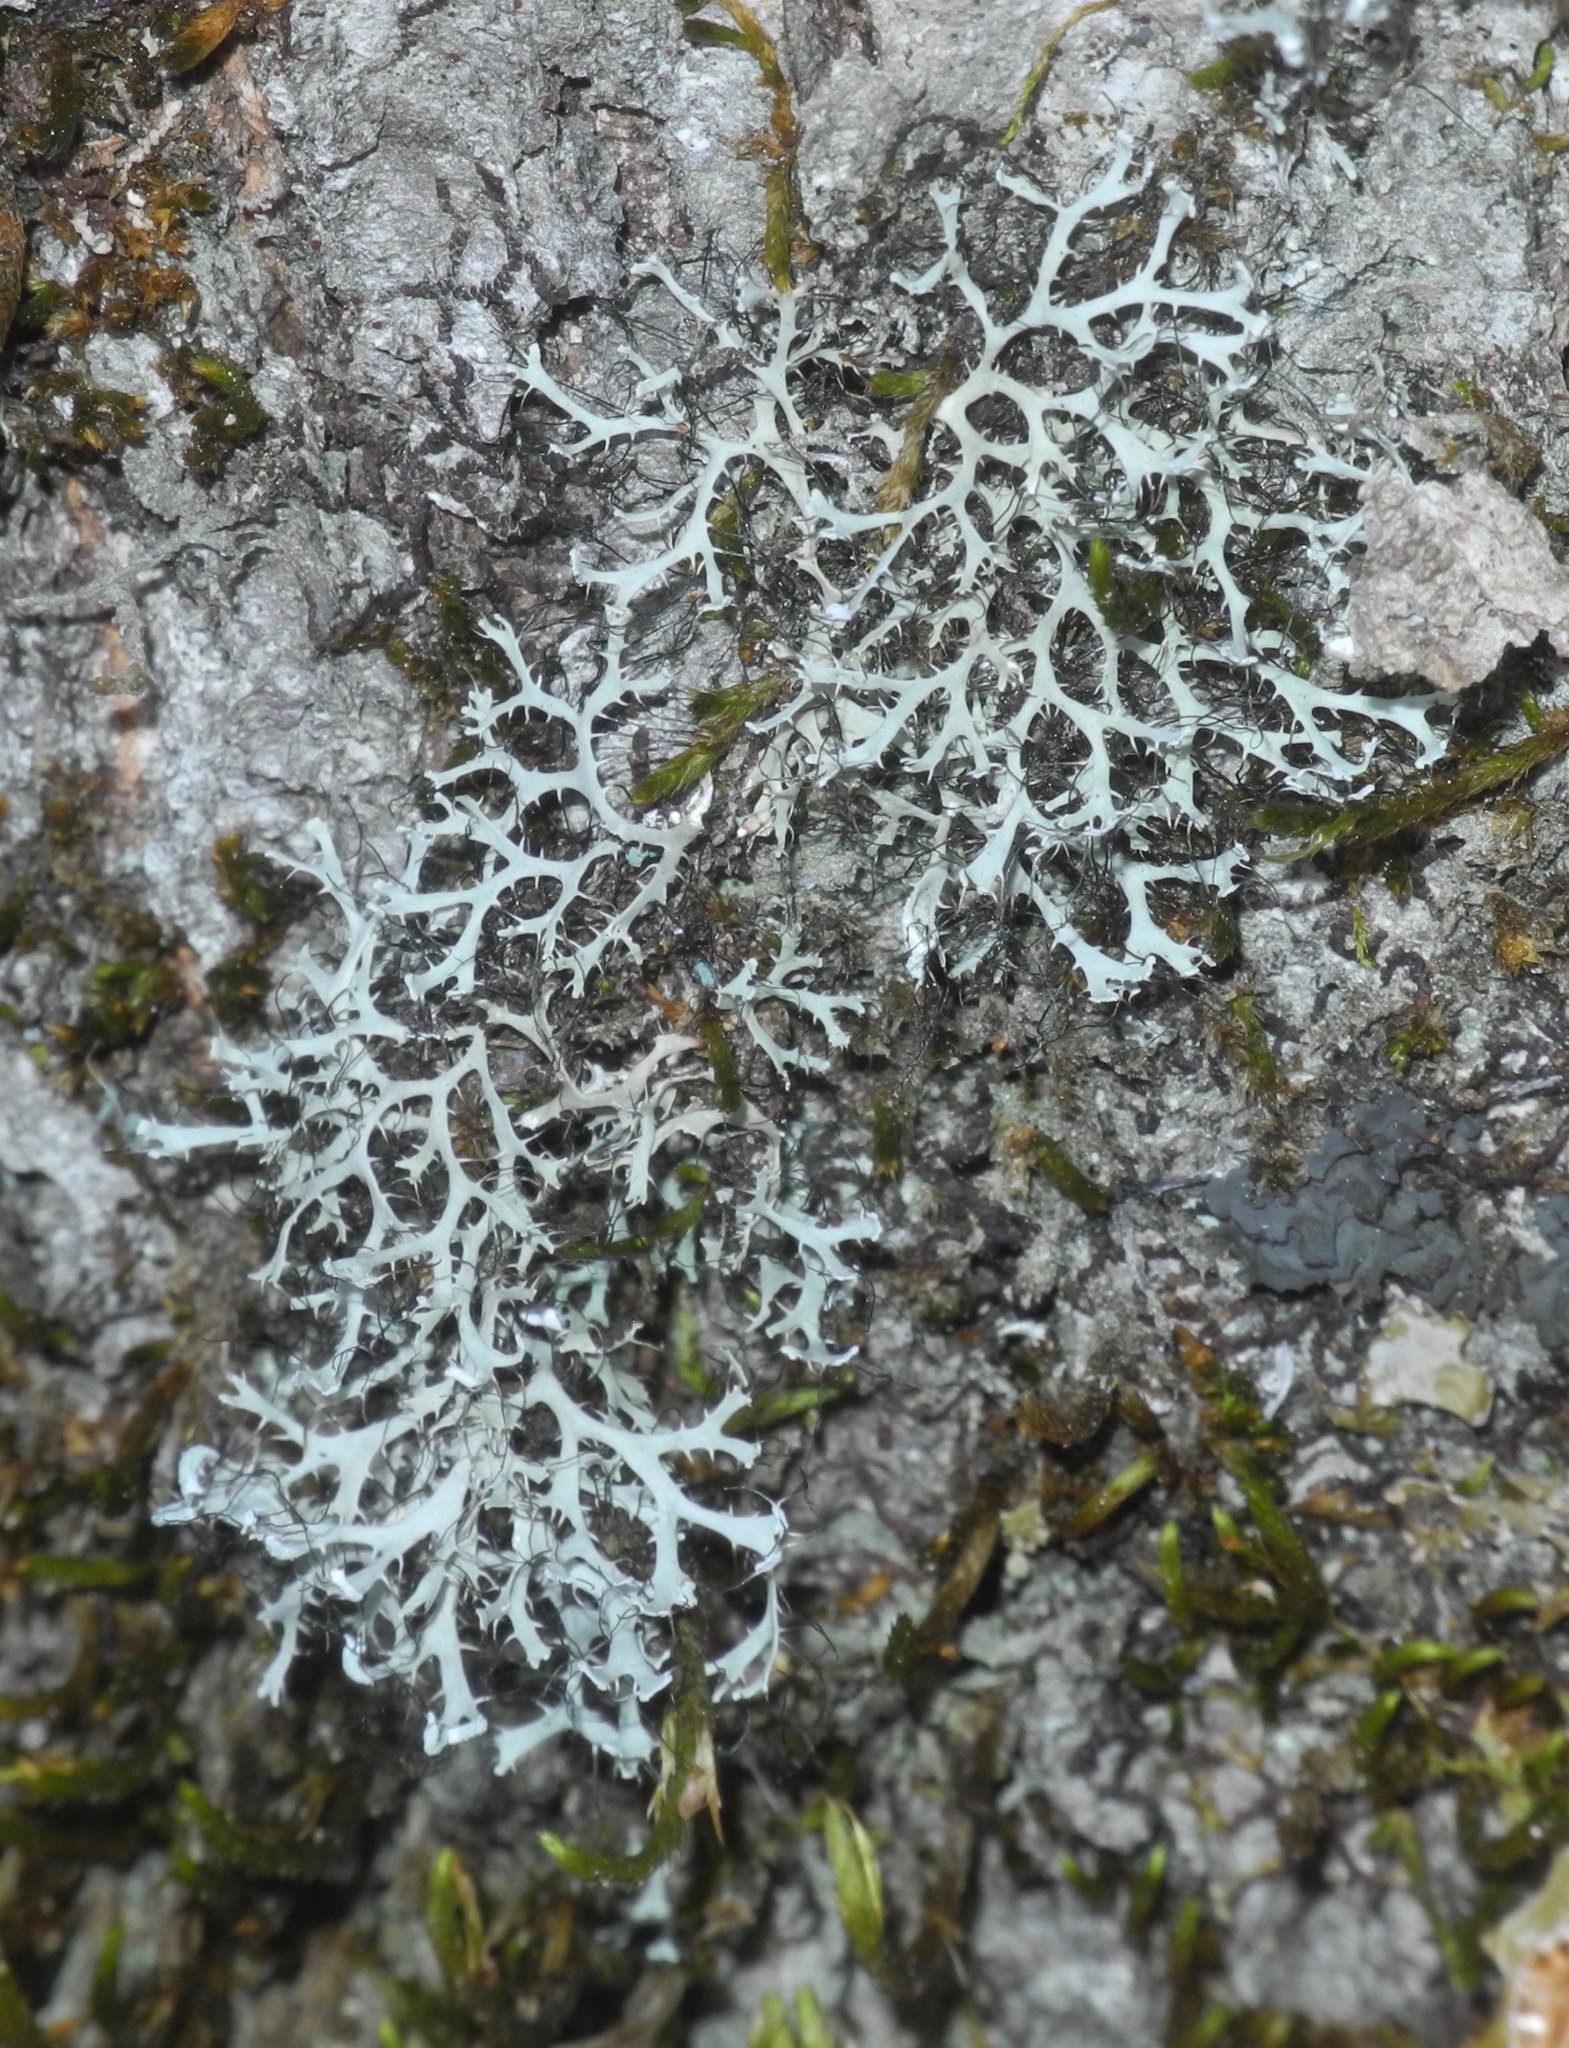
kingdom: Fungi
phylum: Ascomycota
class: Lecanoromycetes
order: Caliciales
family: Physciaceae
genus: Leucodermia
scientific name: Leucodermia leucomelos
